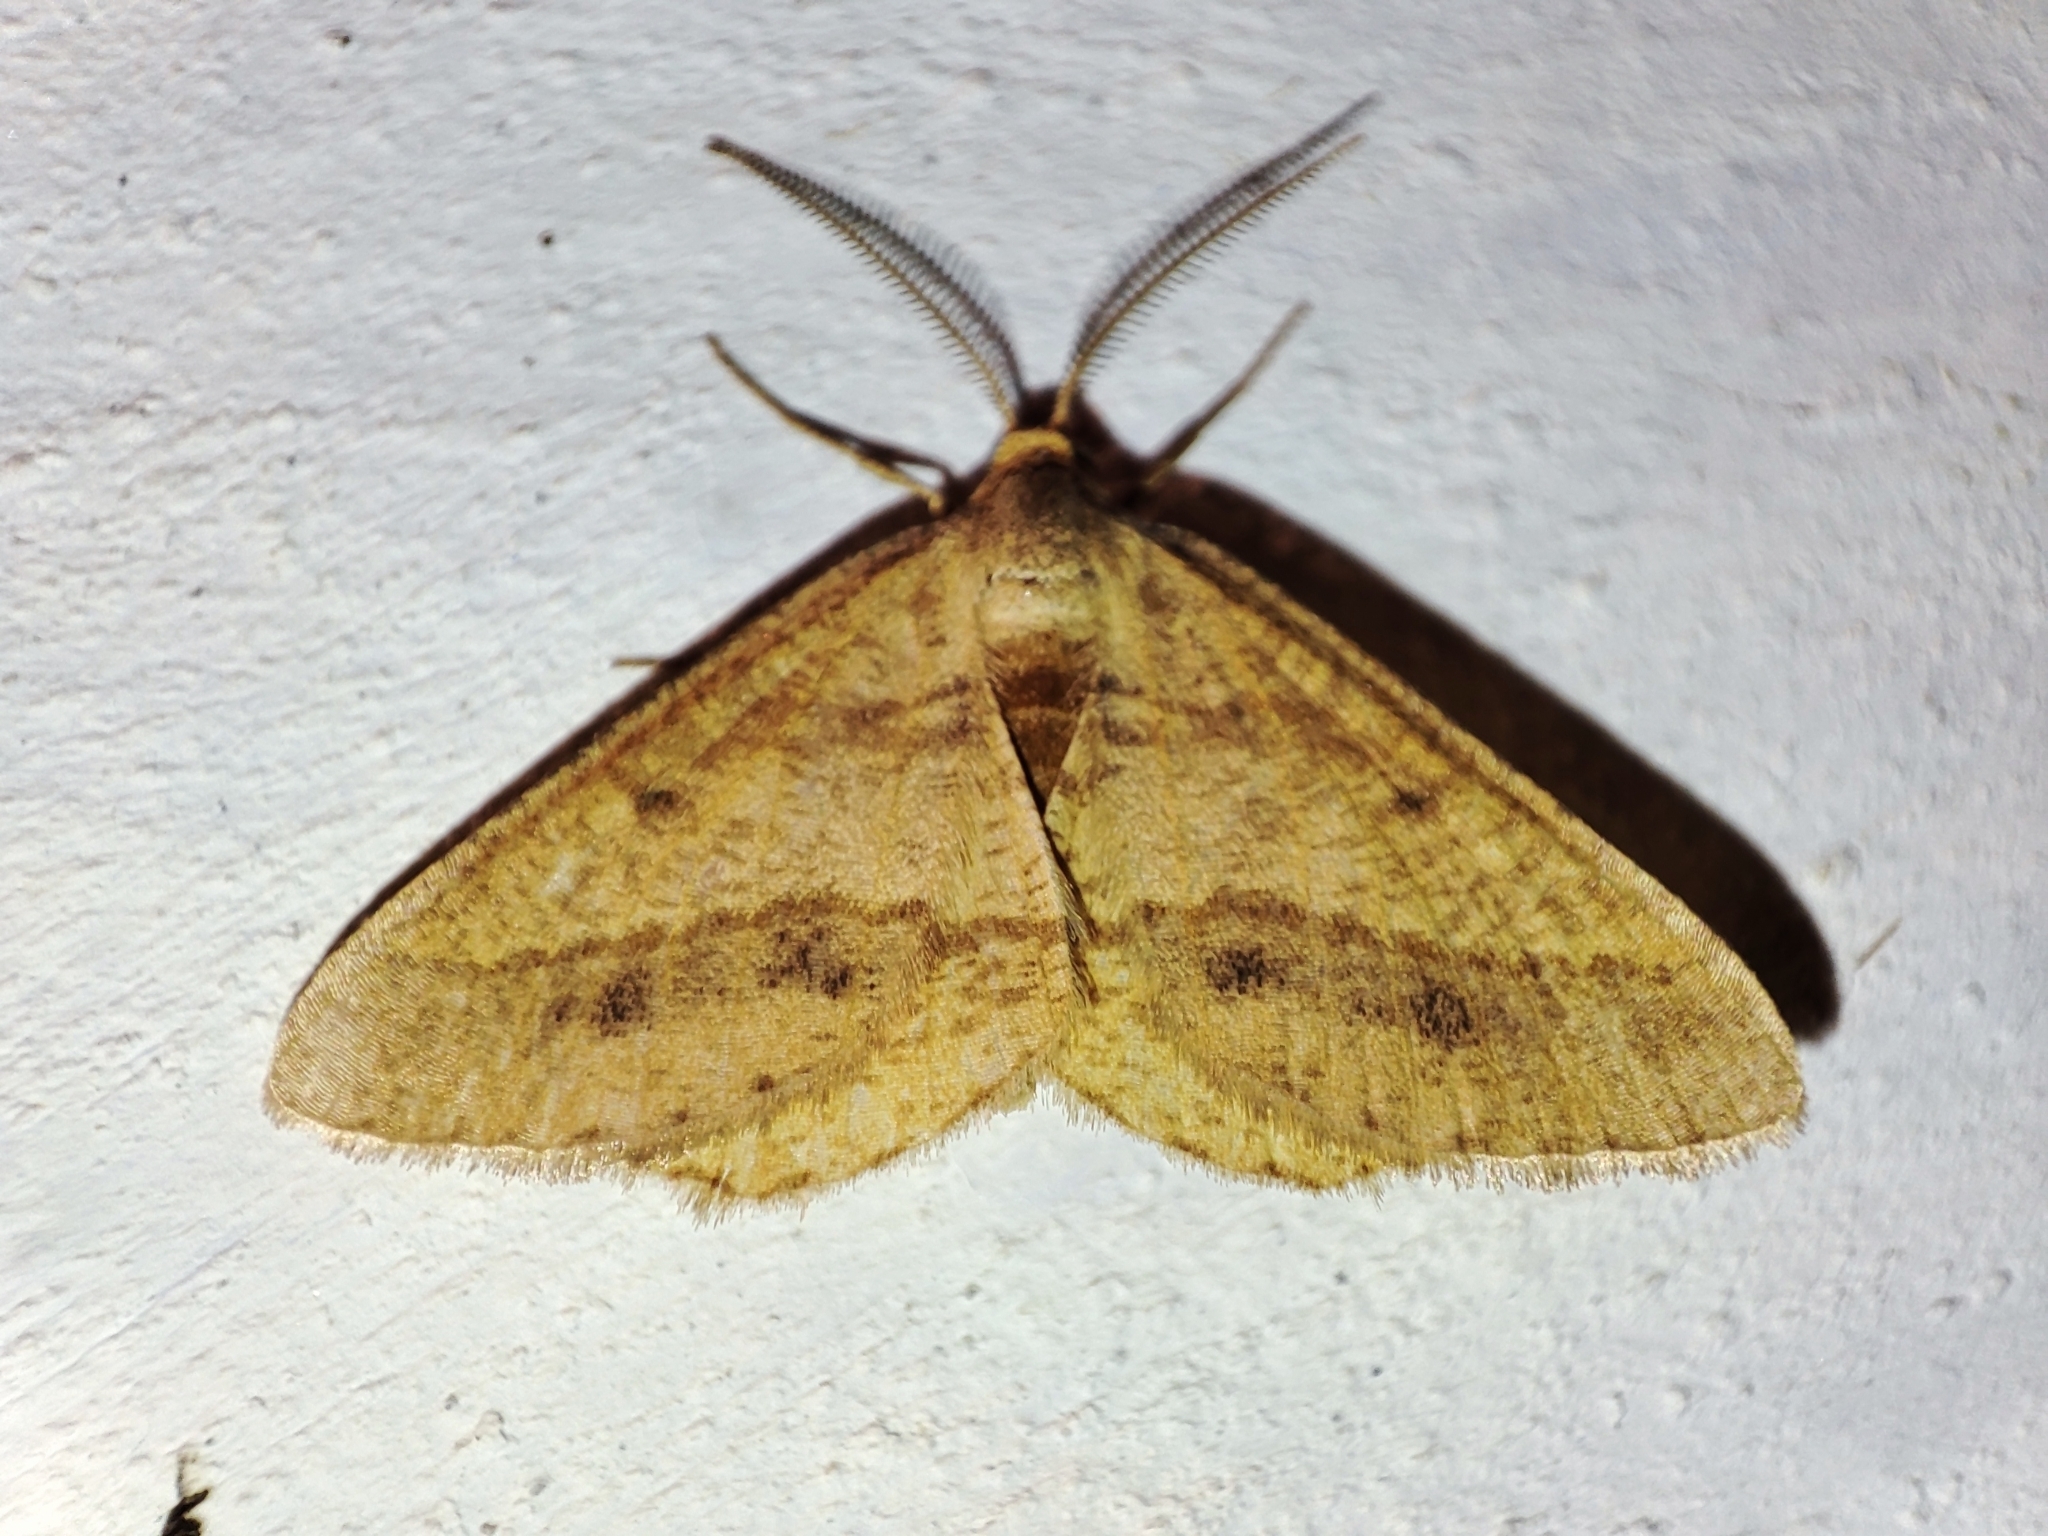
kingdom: Animalia
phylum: Arthropoda
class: Insecta
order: Lepidoptera
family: Geometridae
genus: Tephrina
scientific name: Tephrina arenacearia
